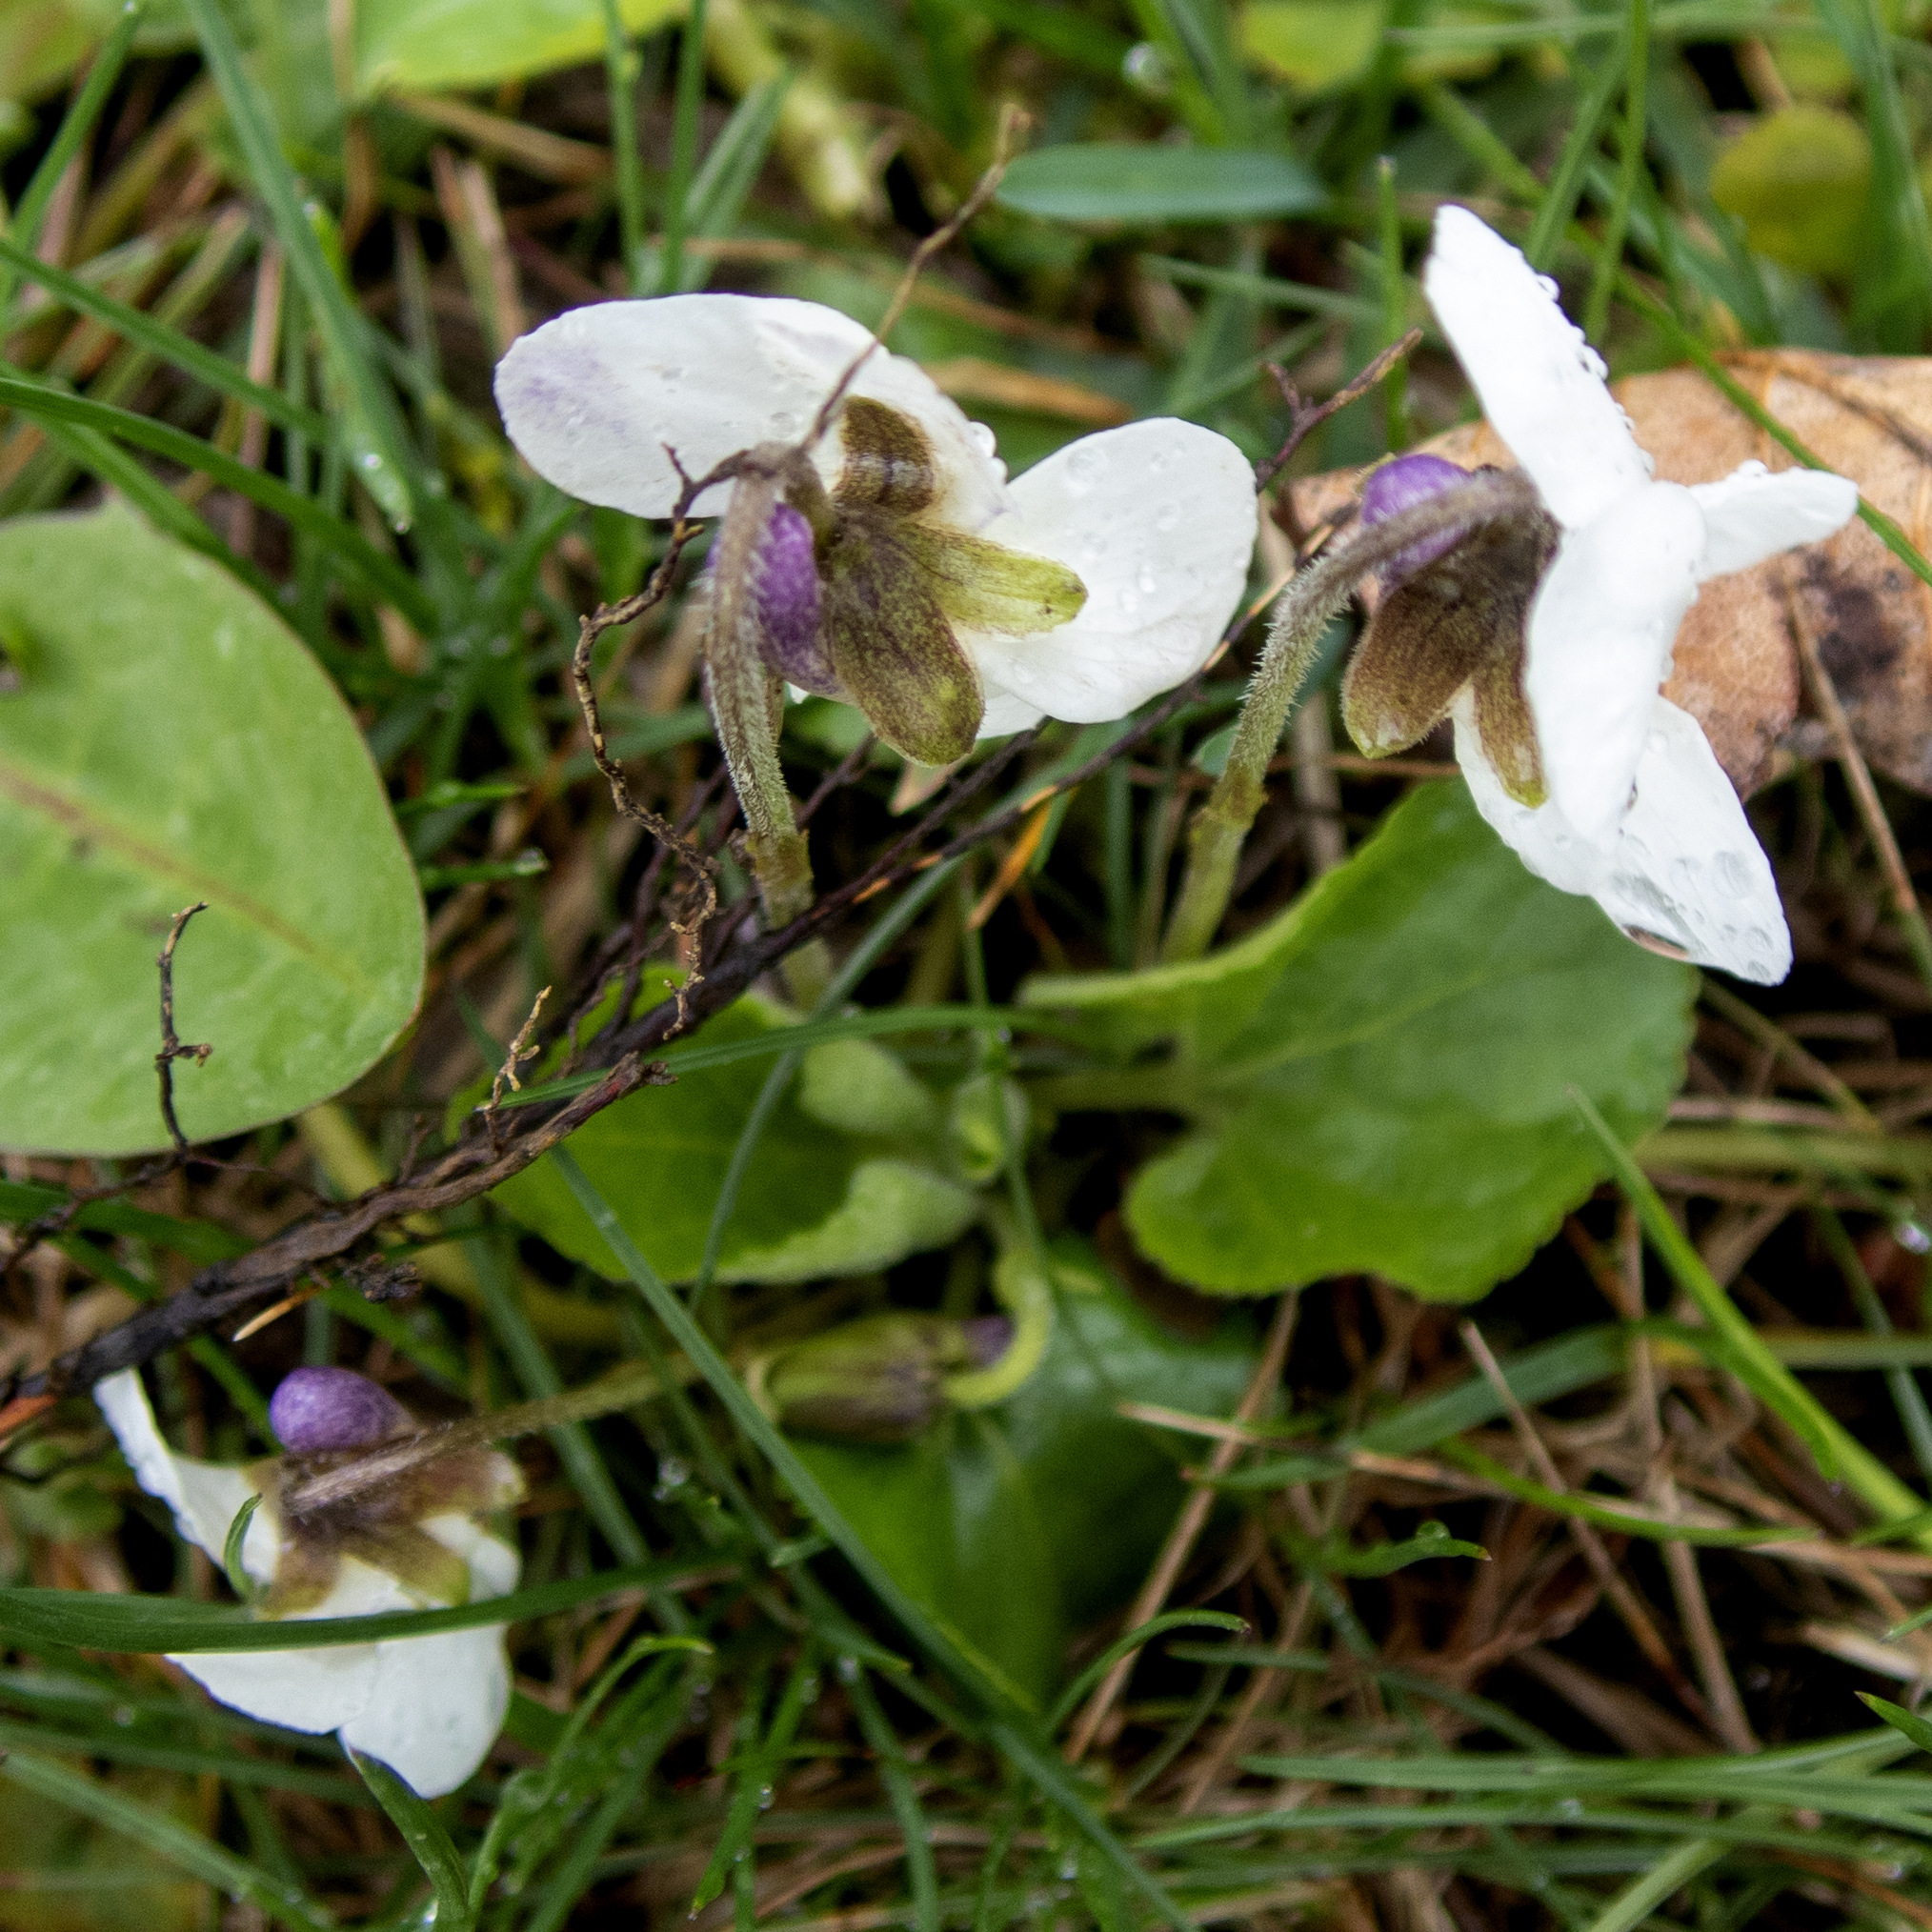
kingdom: Plantae
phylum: Tracheophyta
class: Magnoliopsida
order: Malpighiales
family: Violaceae
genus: Viola
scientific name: Viola odorata
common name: Sweet violet
